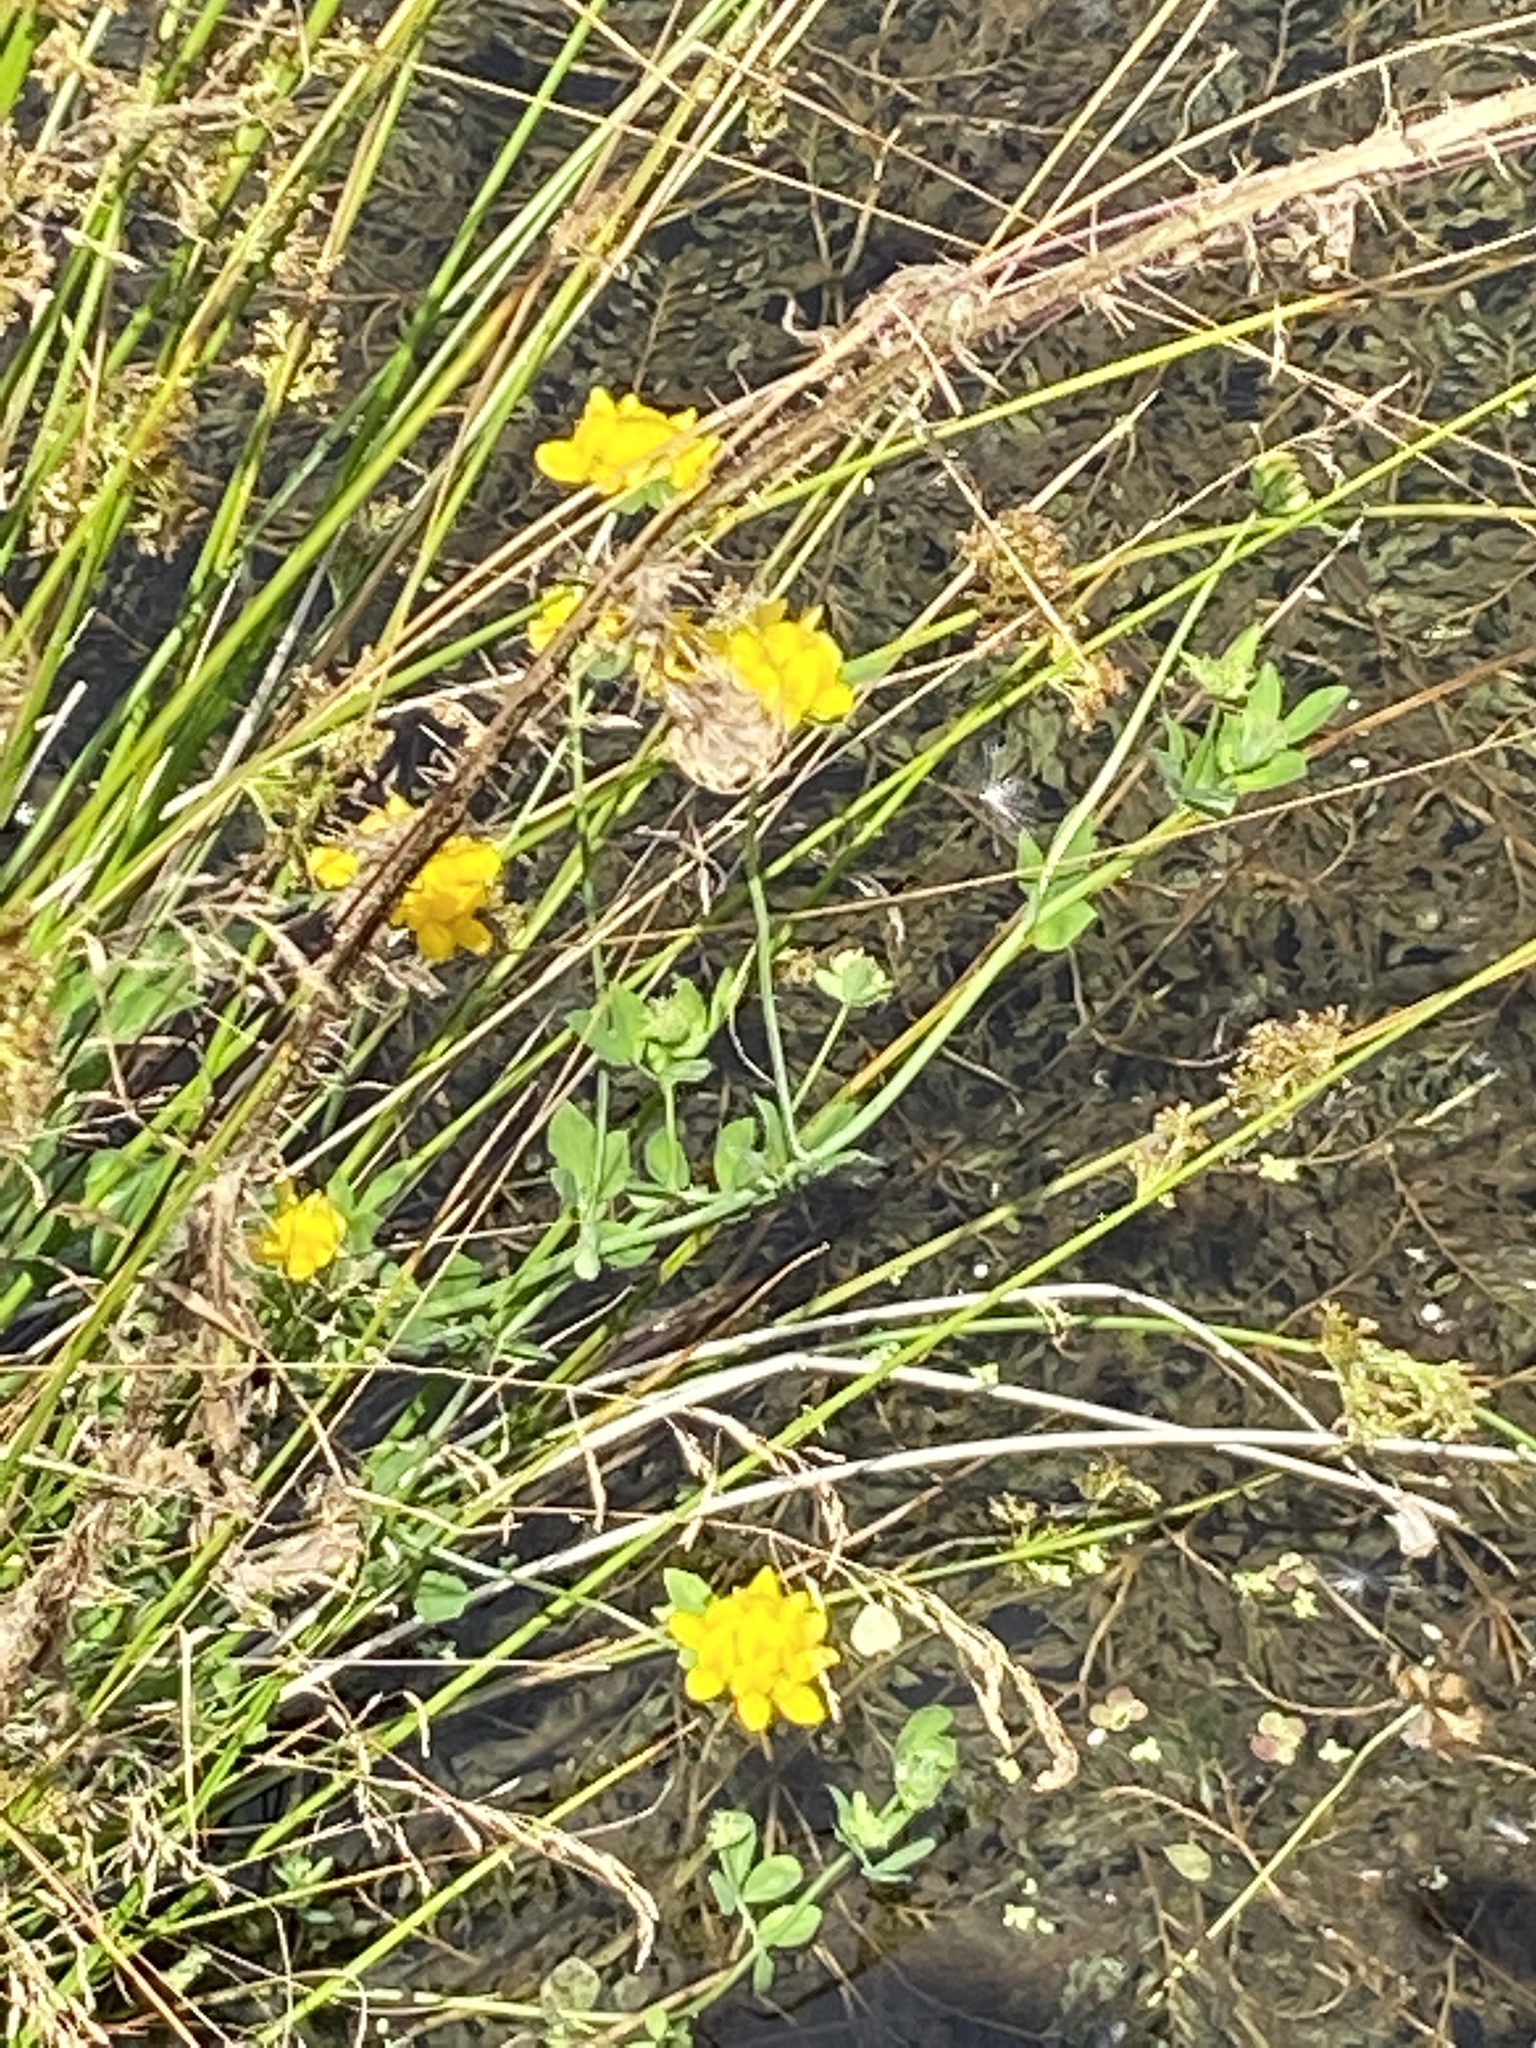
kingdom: Plantae
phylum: Tracheophyta
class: Magnoliopsida
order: Fabales
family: Fabaceae
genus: Lotus
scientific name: Lotus pedunculatus
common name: Greater birdsfoot-trefoil
